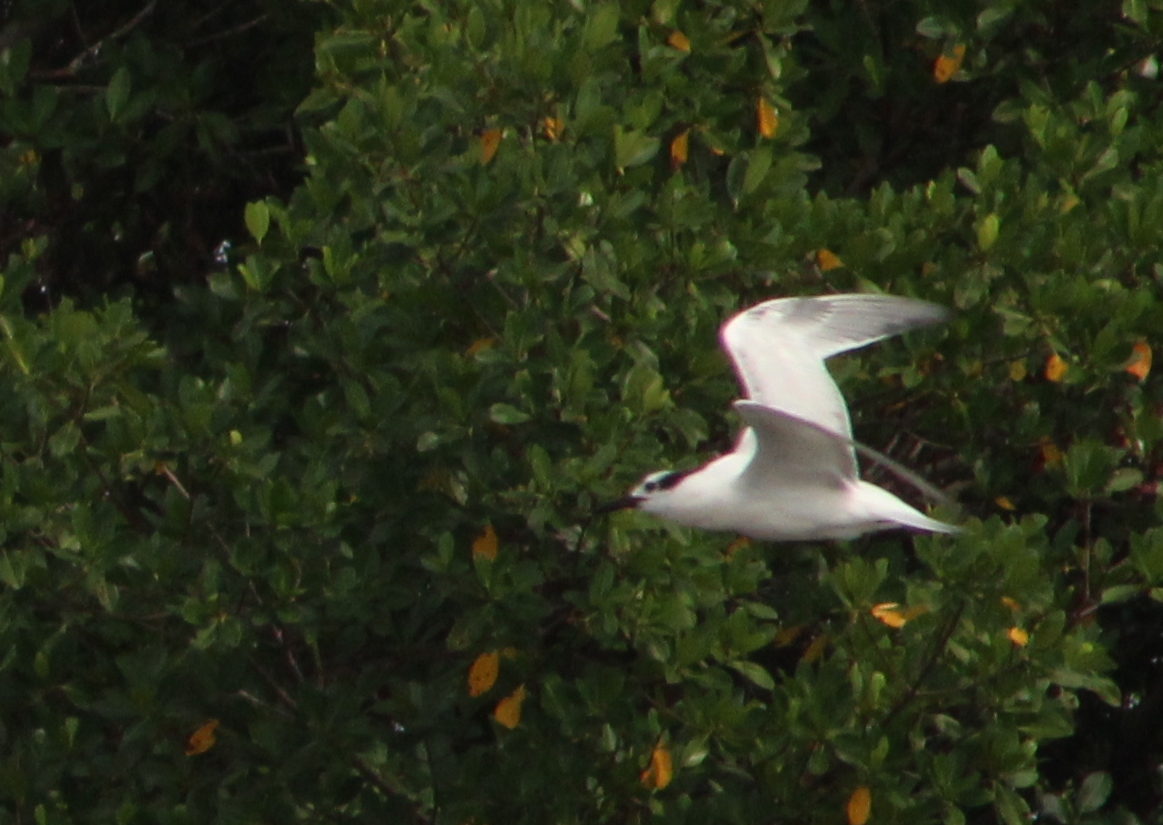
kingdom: Animalia
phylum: Chordata
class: Aves
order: Charadriiformes
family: Laridae
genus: Thalasseus
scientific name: Thalasseus acuflavidus
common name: Cabot's tern
